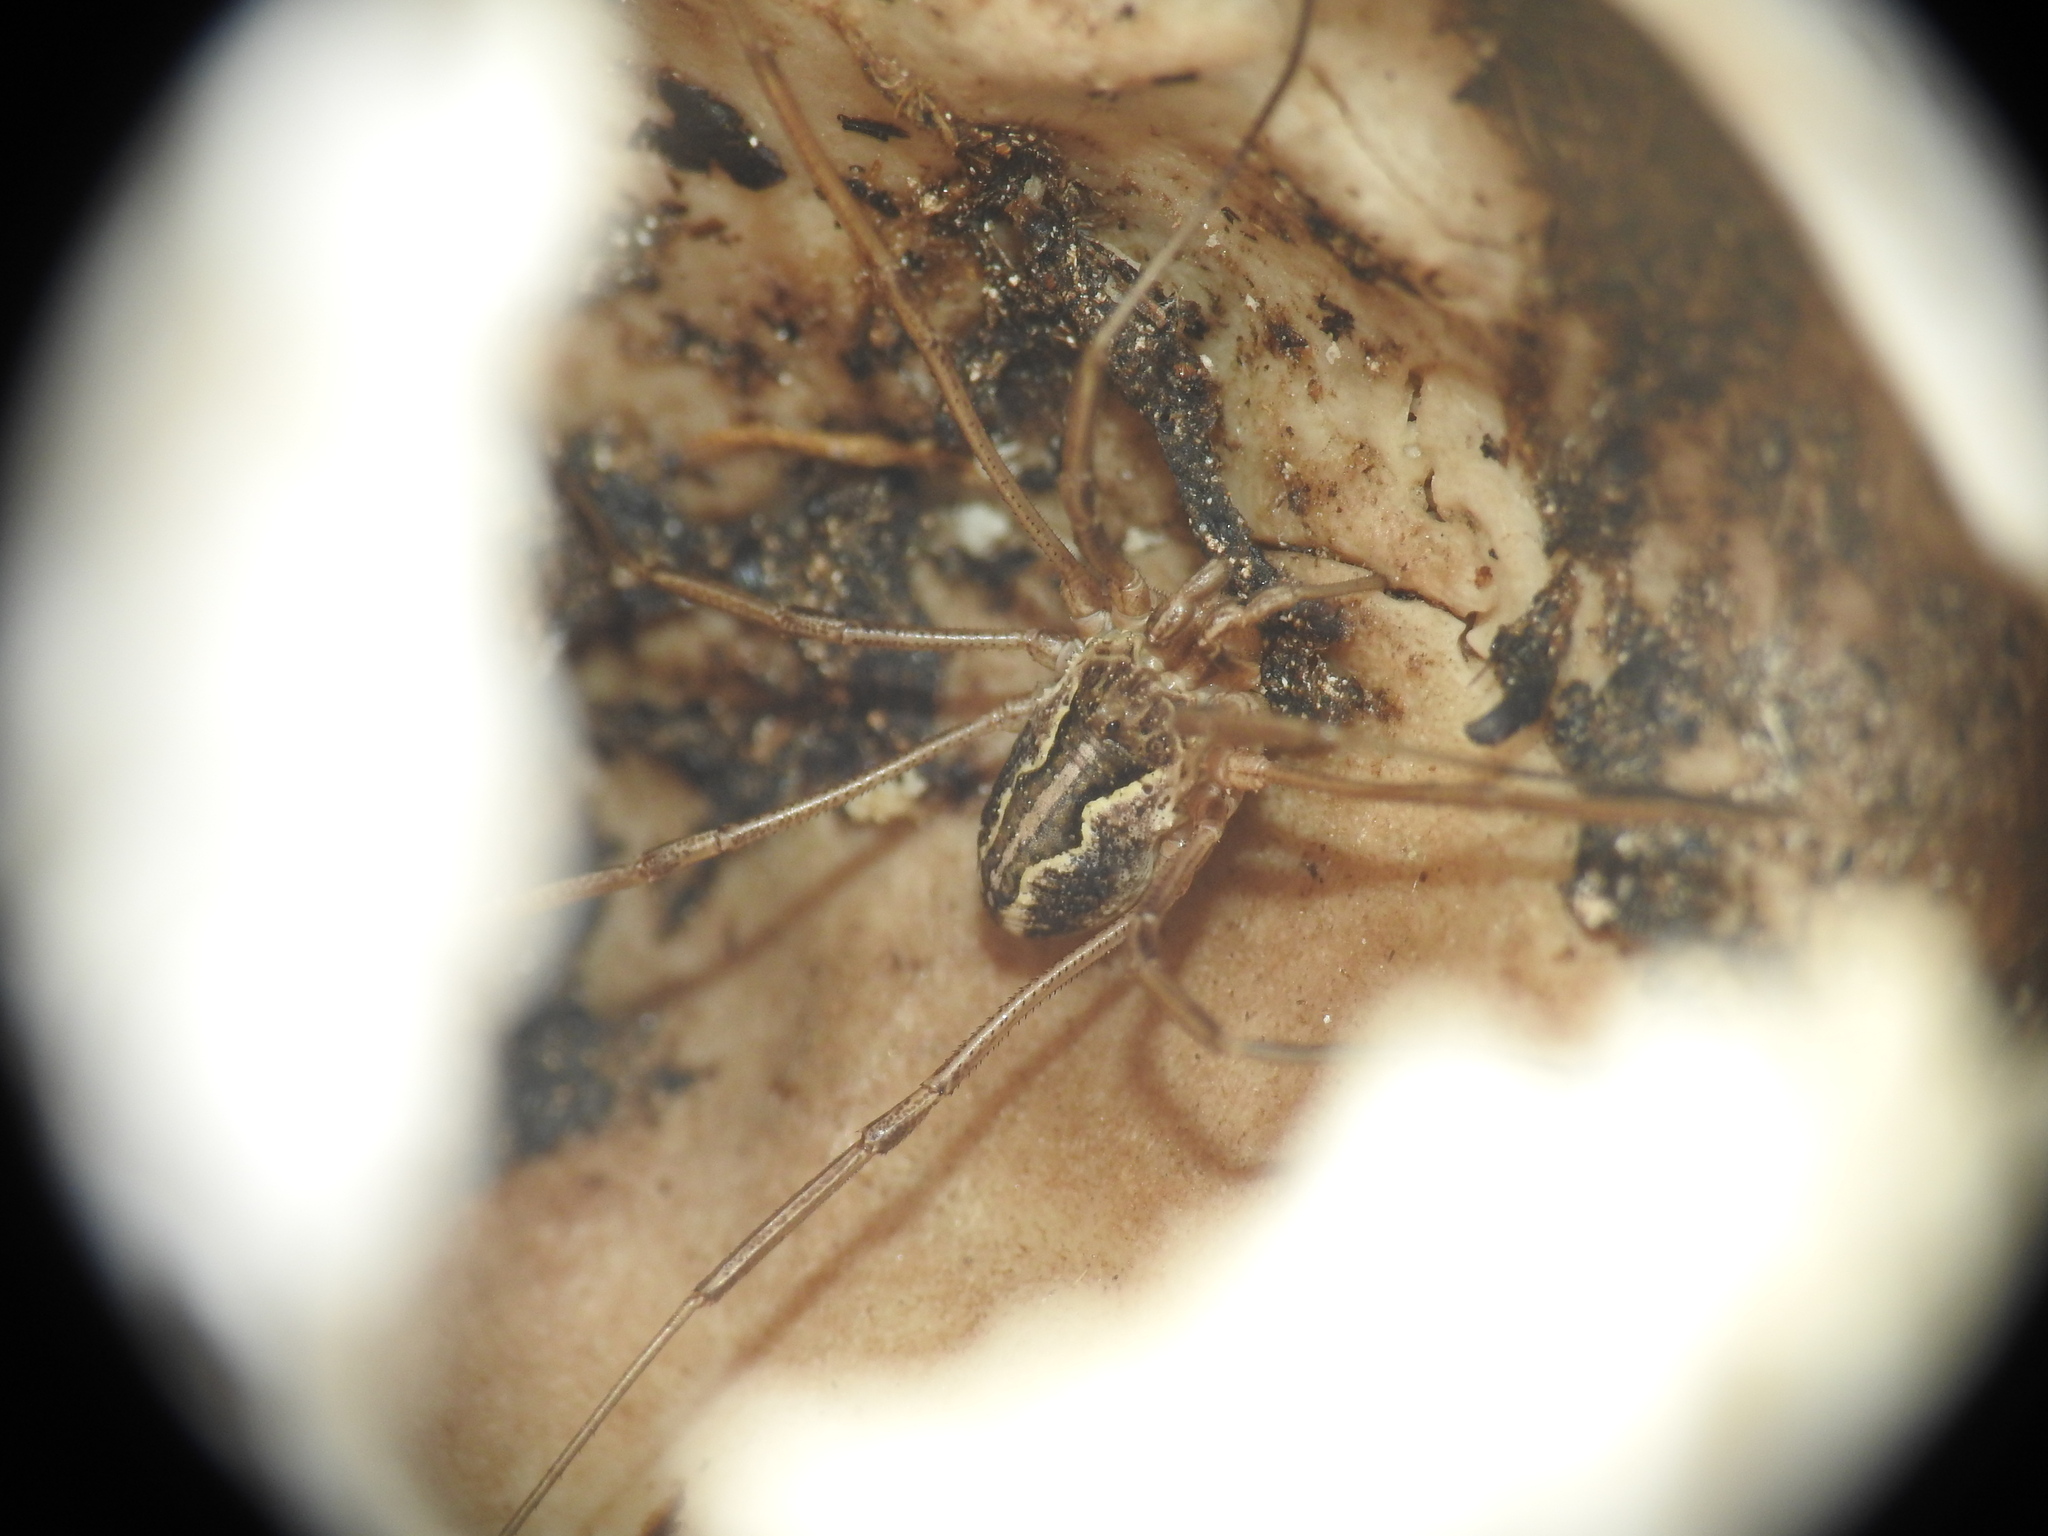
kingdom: Animalia
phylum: Arthropoda
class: Arachnida
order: Opiliones
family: Phalangiidae
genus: Mitopus
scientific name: Mitopus morio
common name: Saddleback harvestman
